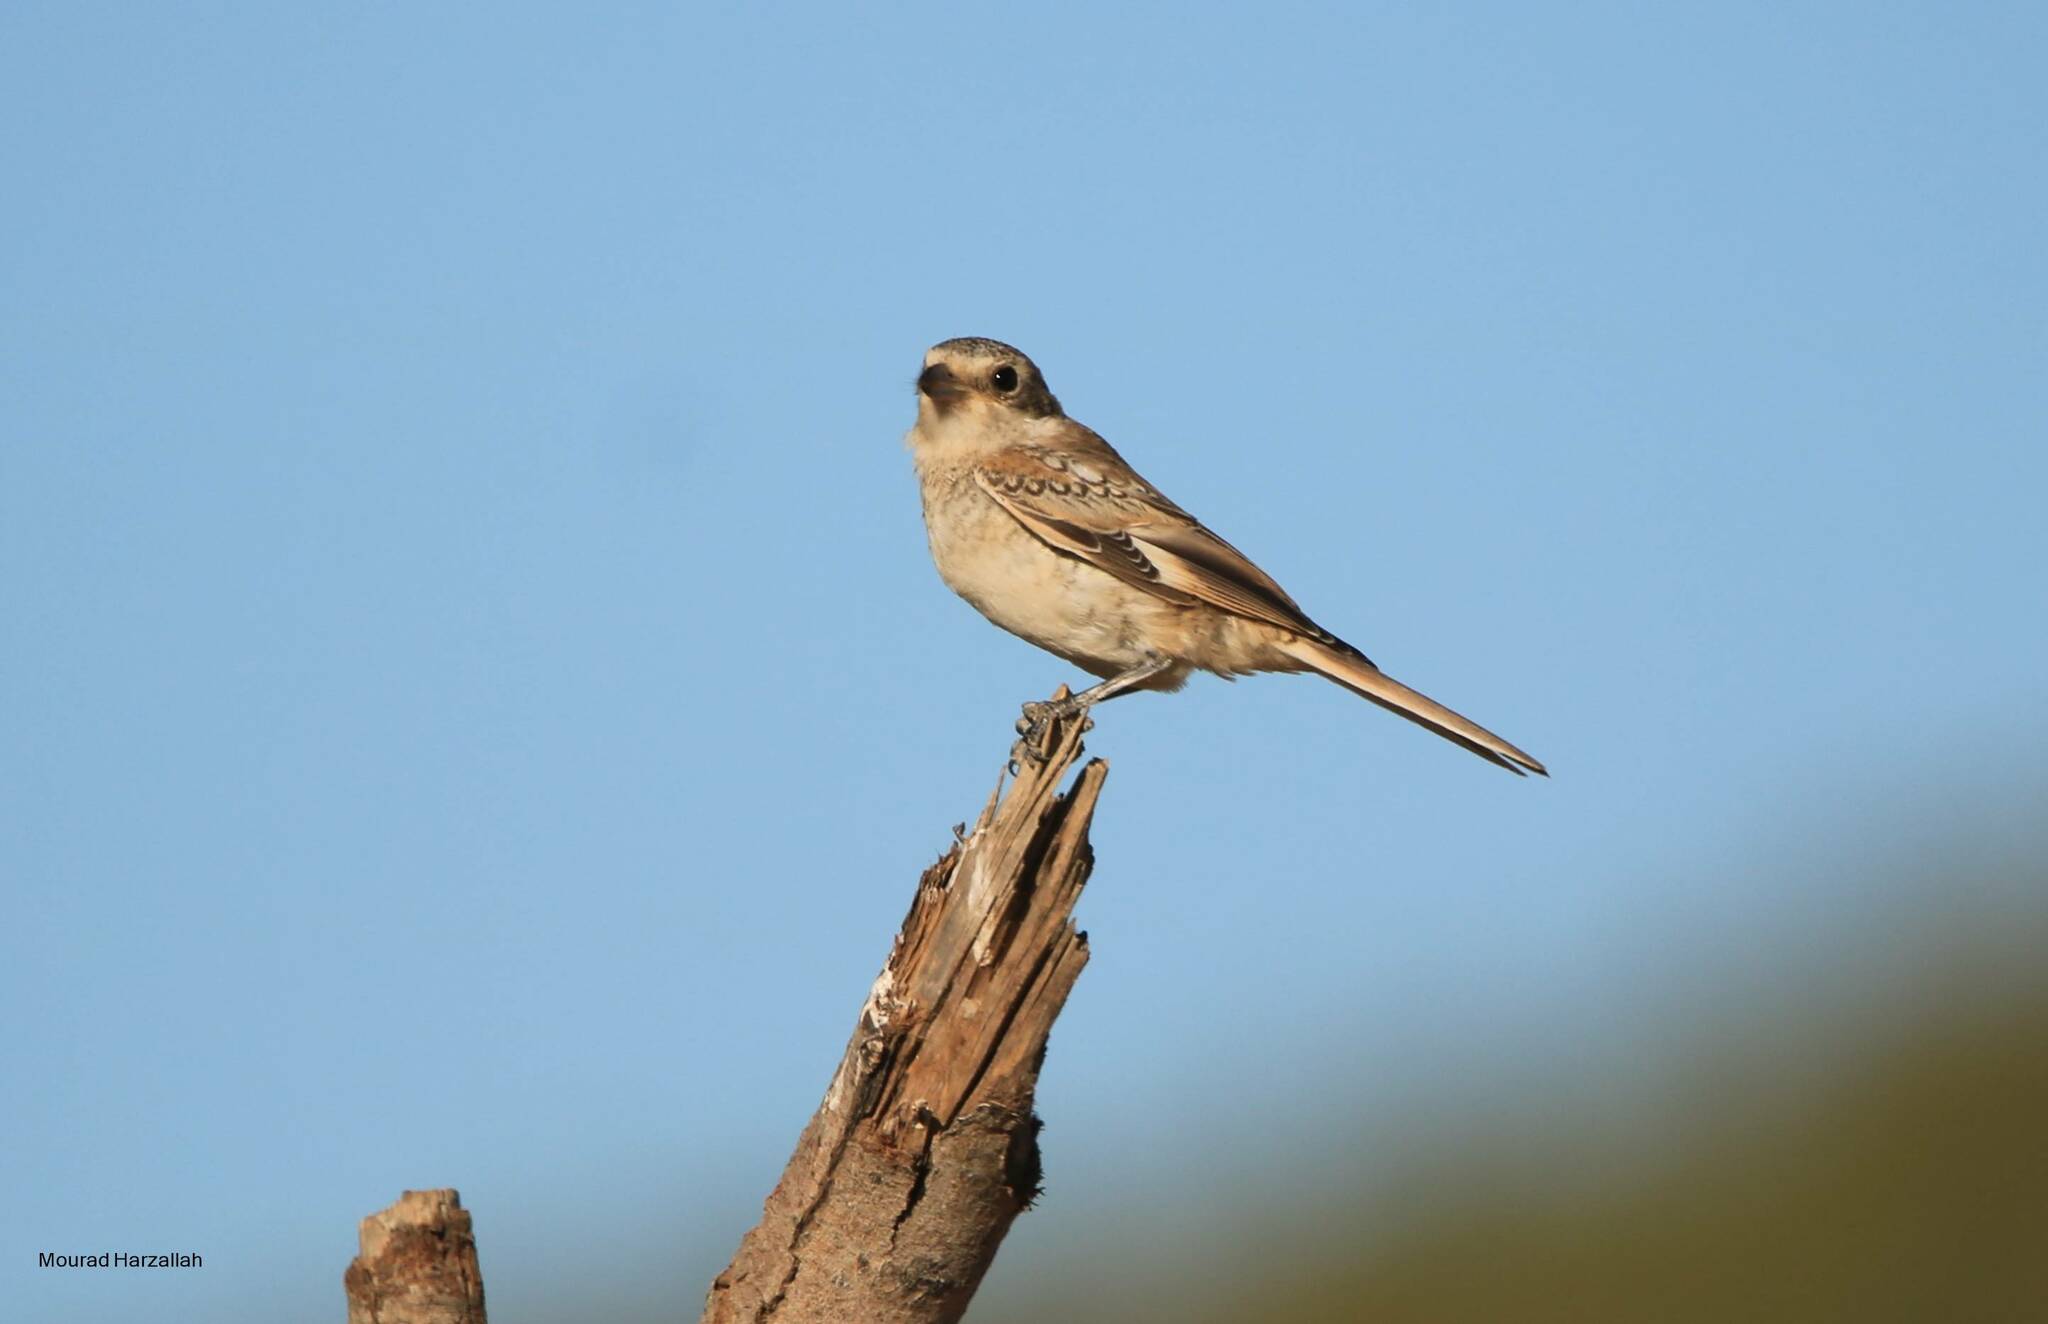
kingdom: Animalia
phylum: Chordata
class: Aves
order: Passeriformes
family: Laniidae
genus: Lanius
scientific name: Lanius senator
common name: Woodchat shrike
